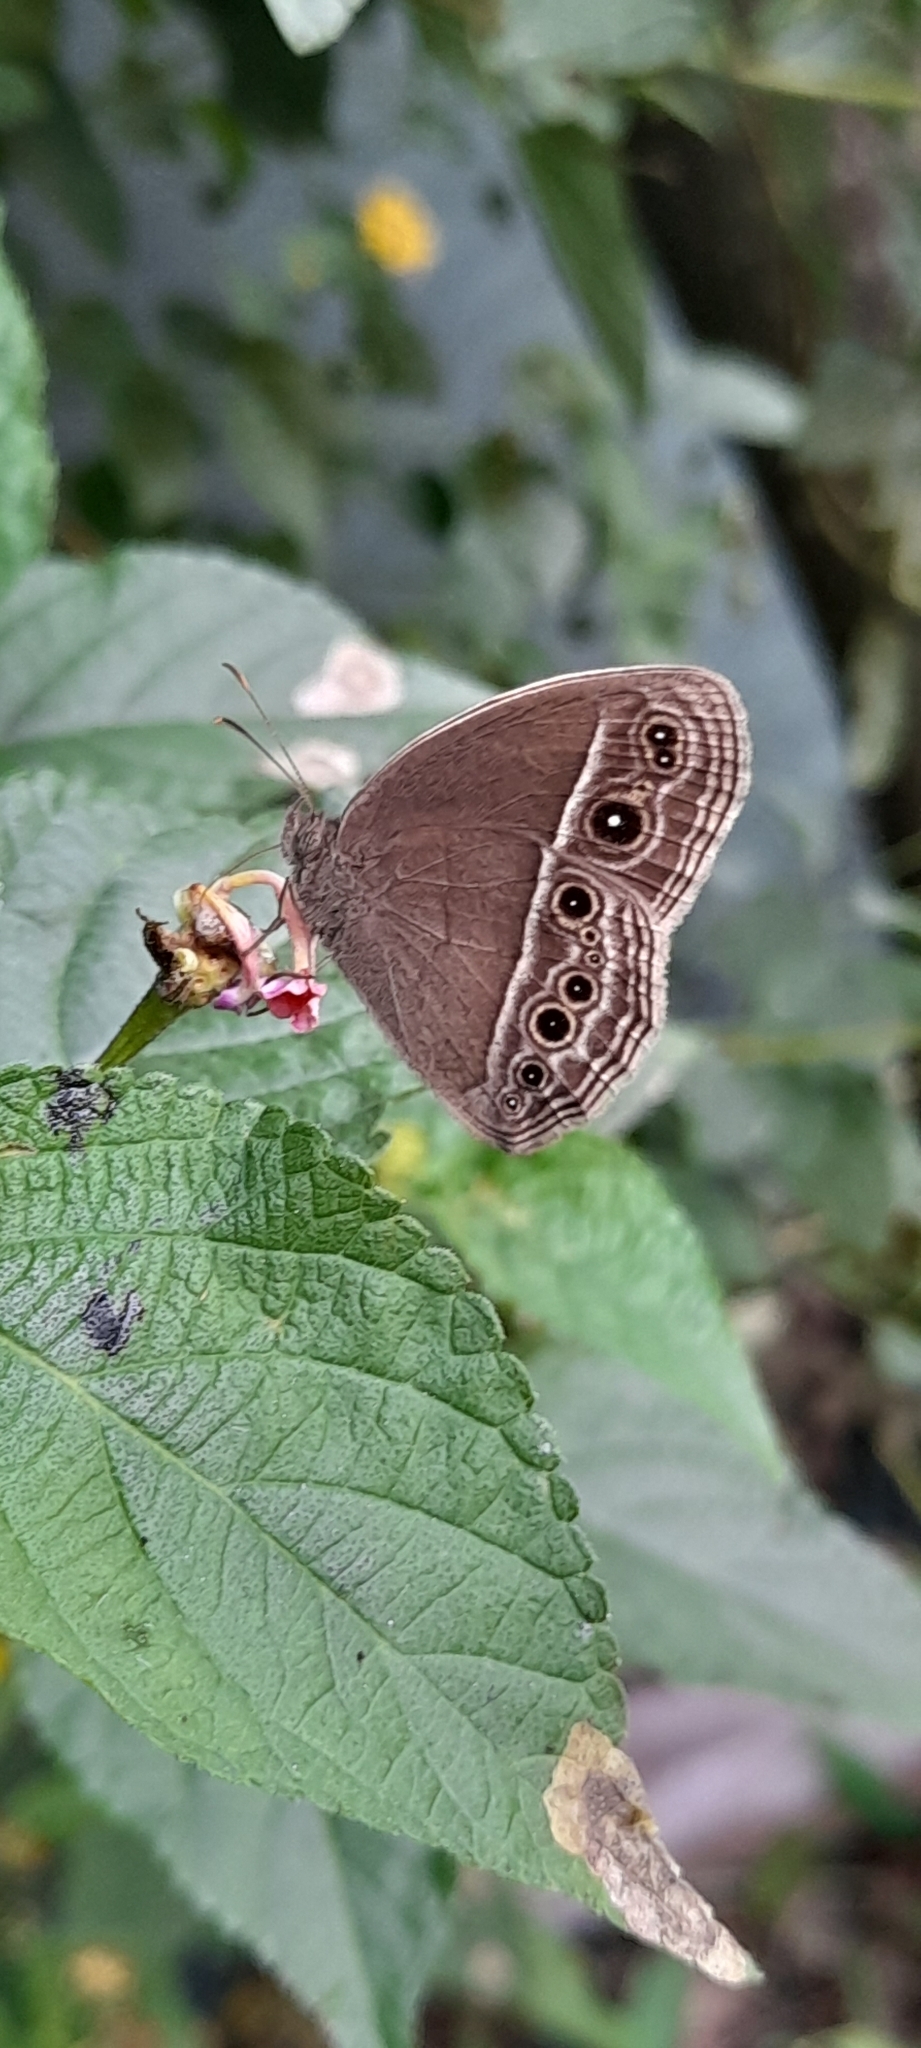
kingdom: Animalia
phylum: Arthropoda
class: Insecta
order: Lepidoptera
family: Nymphalidae
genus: Mycalesis
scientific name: Mycalesis mineus
